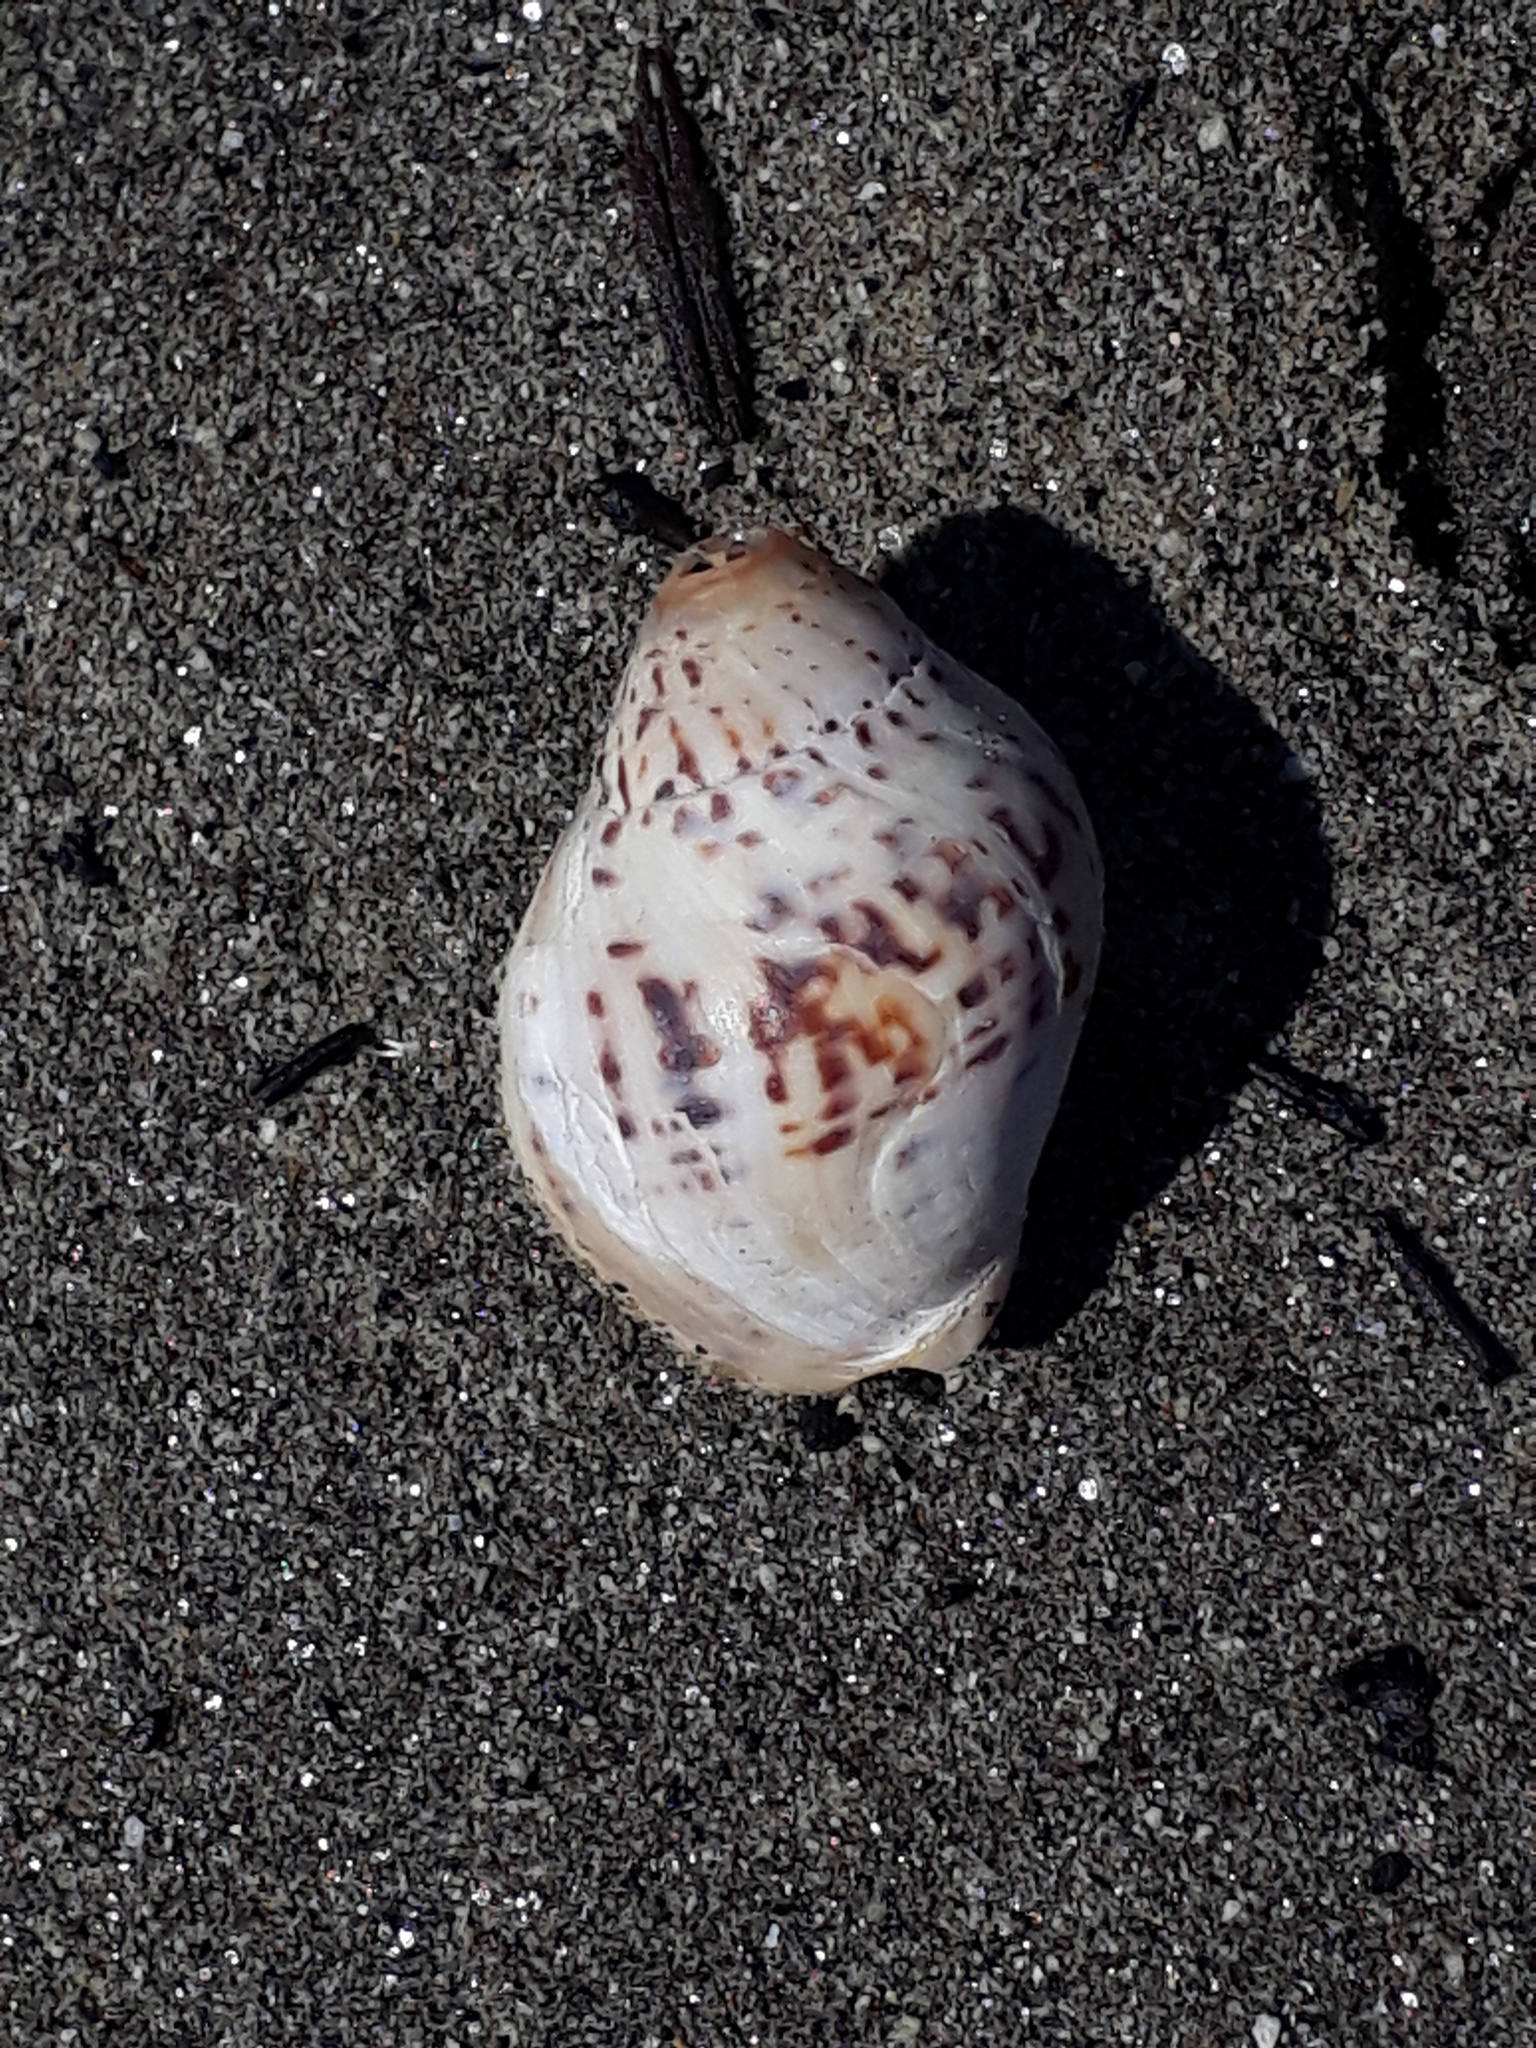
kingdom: Animalia
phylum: Mollusca
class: Gastropoda
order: Neogastropoda
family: Cominellidae
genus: Cominella
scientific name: Cominella adspersa
